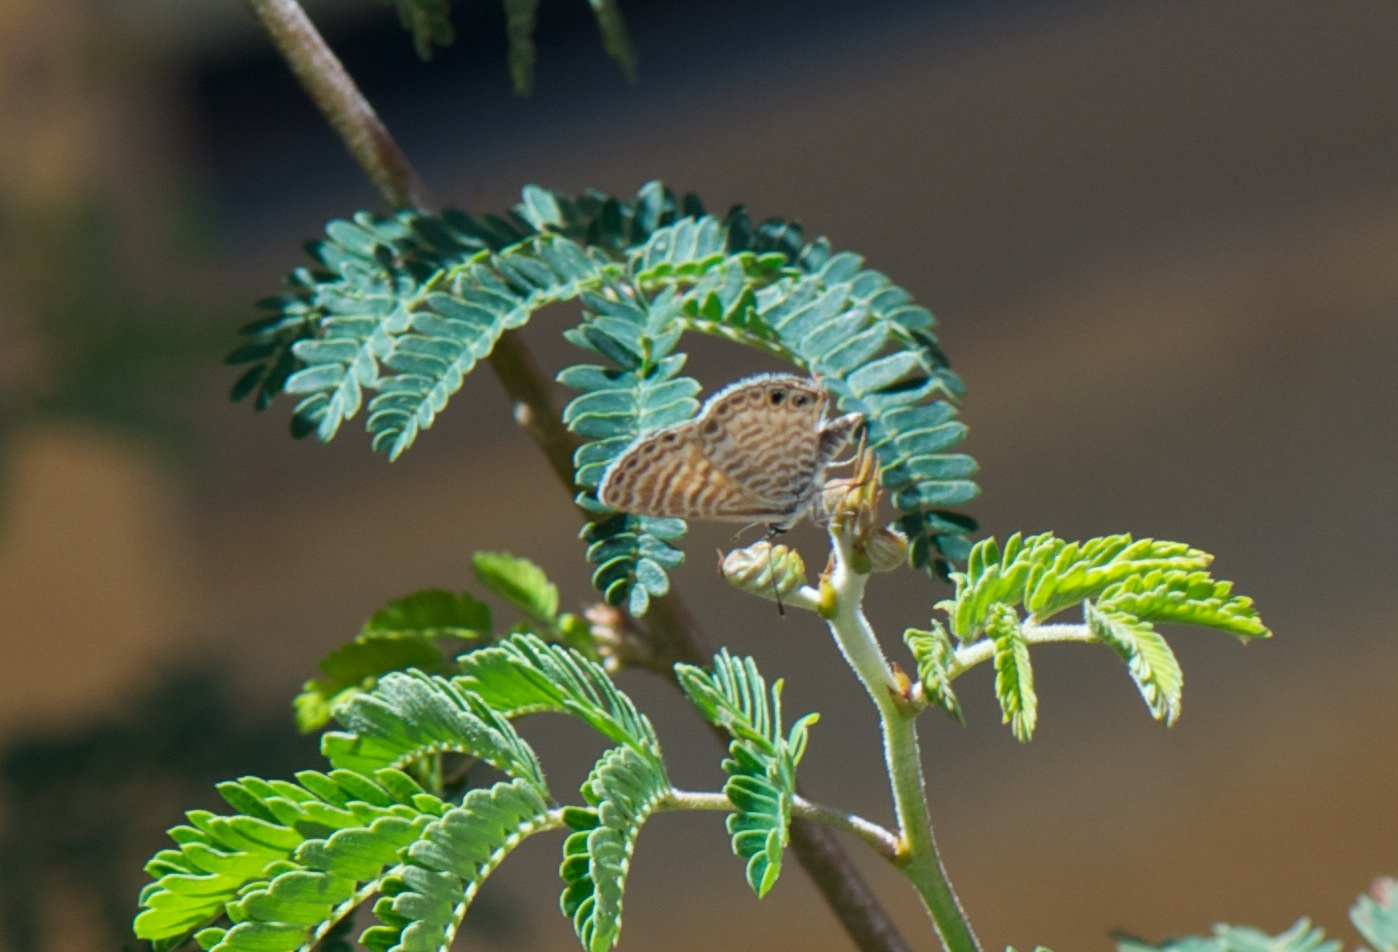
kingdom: Animalia
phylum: Arthropoda
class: Insecta
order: Lepidoptera
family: Lycaenidae
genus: Leptotes
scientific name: Leptotes marina
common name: Marine blue
